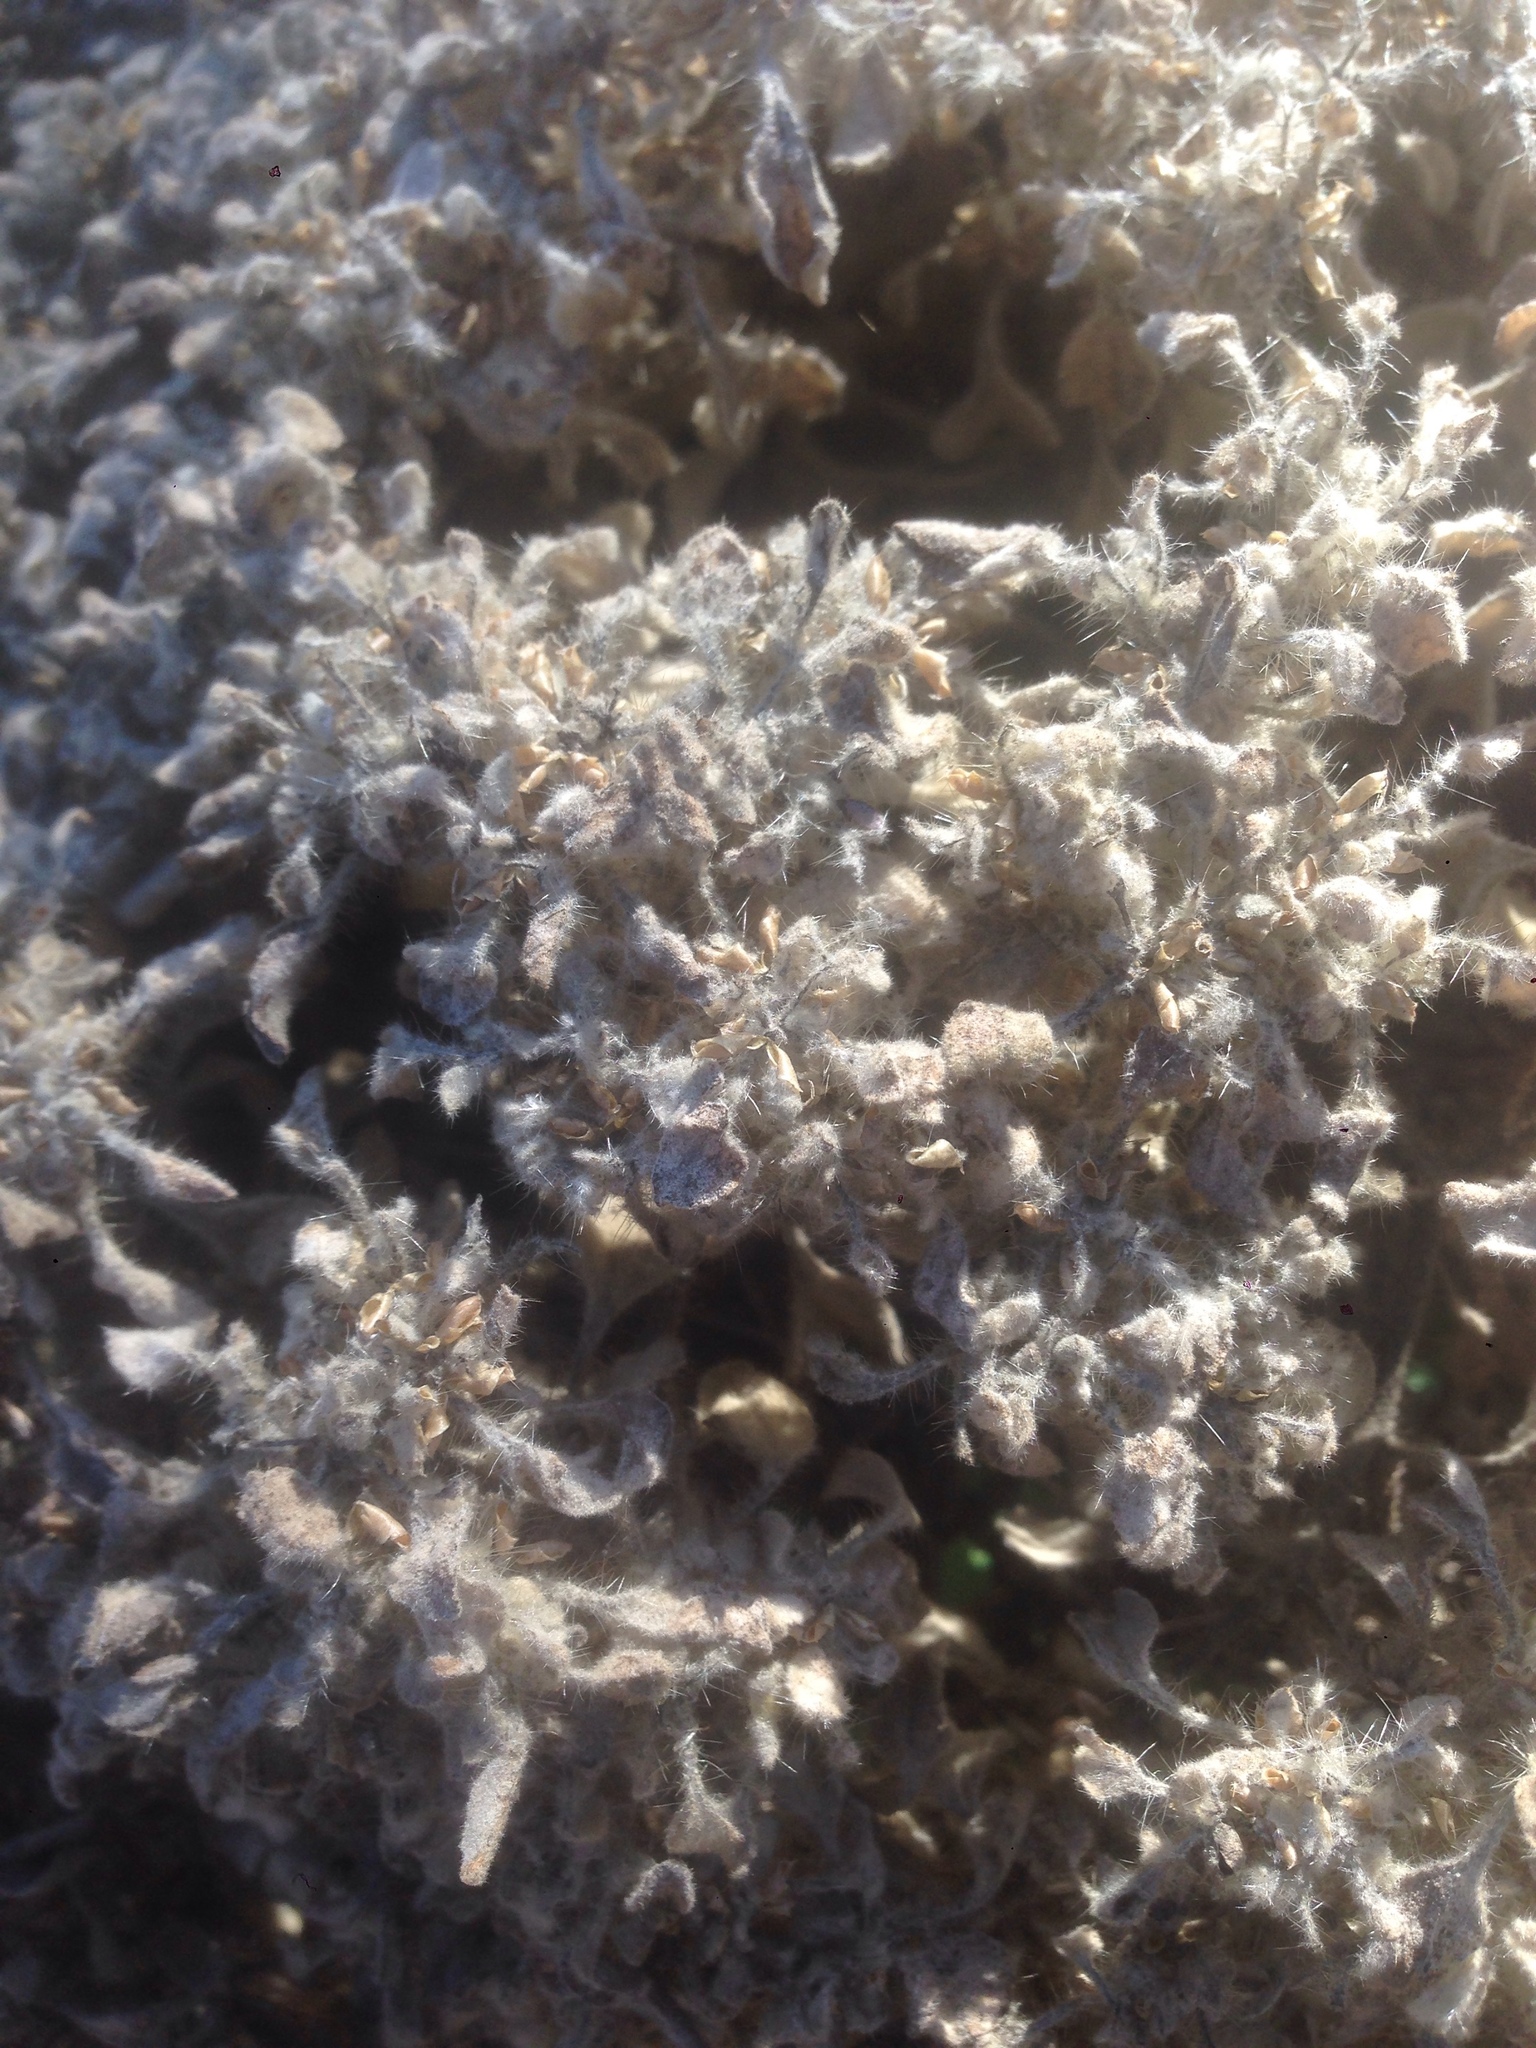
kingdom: Plantae
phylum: Tracheophyta
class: Magnoliopsida
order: Malpighiales
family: Euphorbiaceae
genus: Croton
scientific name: Croton setiger
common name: Dove weed
